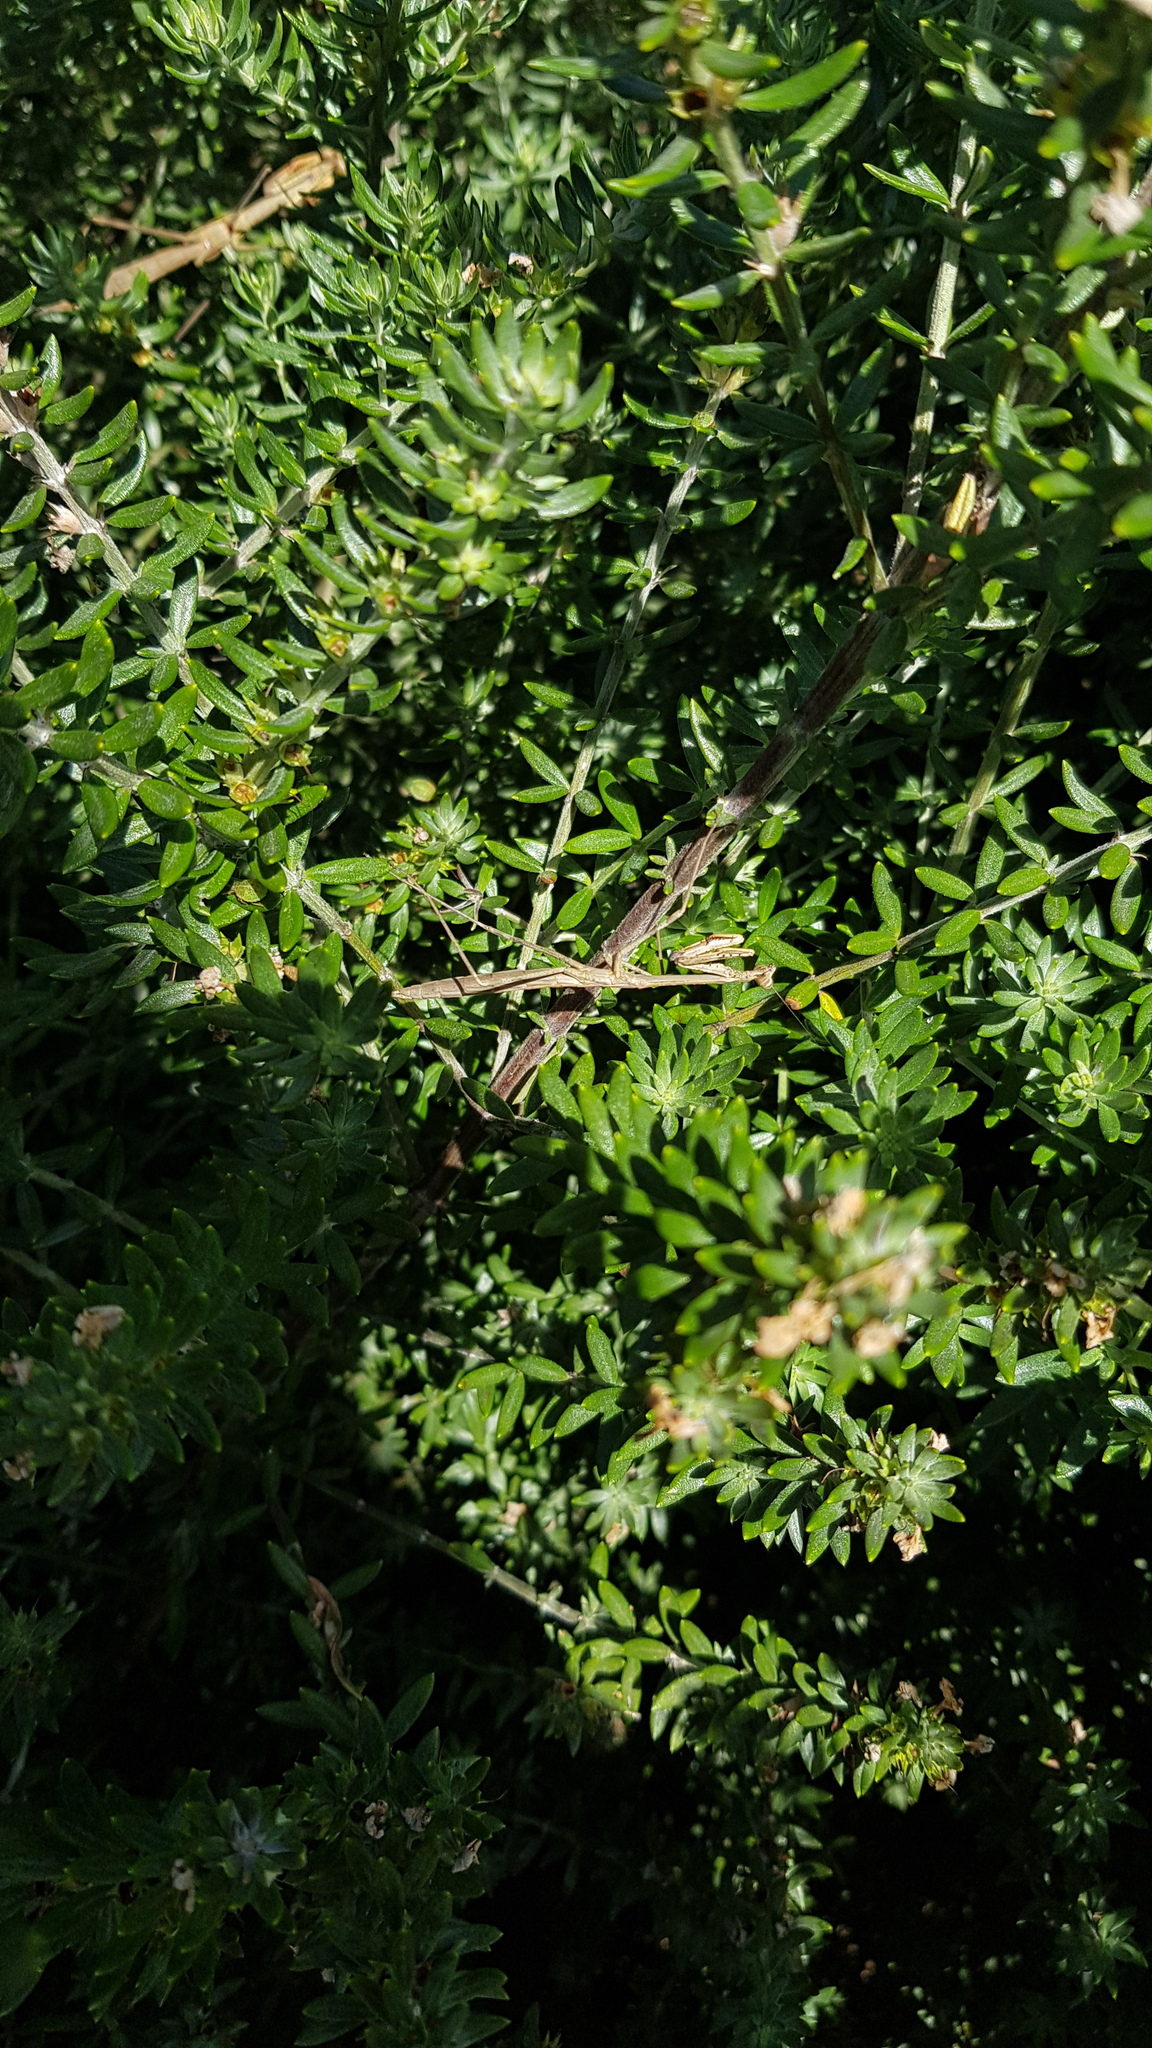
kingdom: Animalia
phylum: Arthropoda
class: Insecta
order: Mantodea
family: Mantidae
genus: Archimantis
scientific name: Archimantis latistyla
